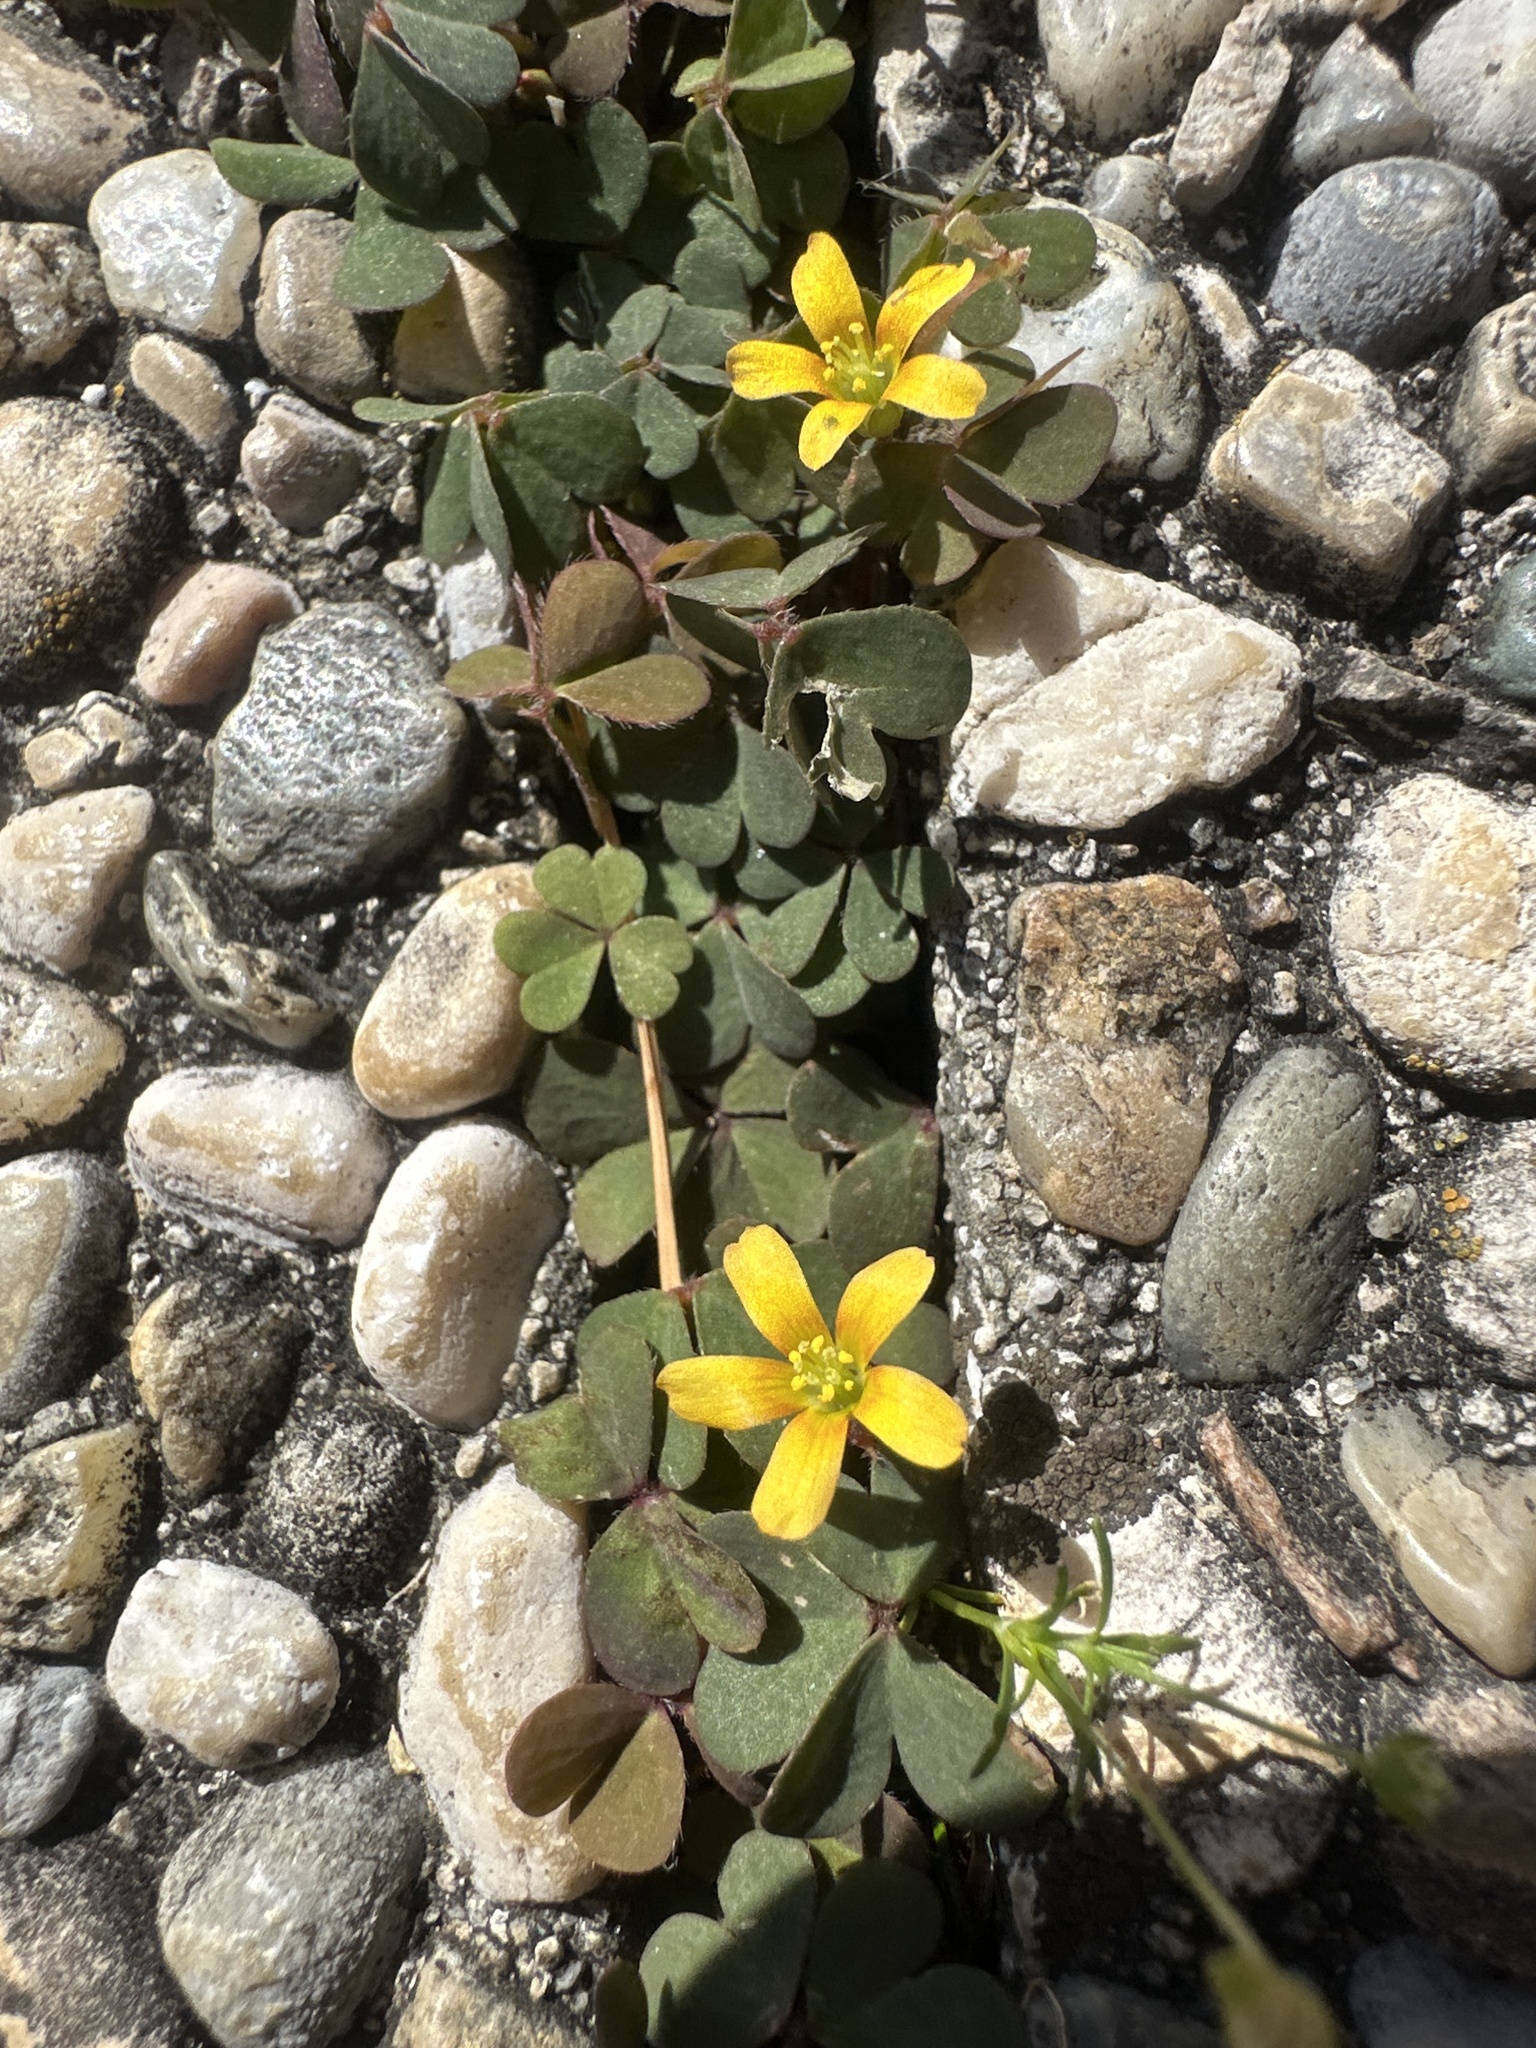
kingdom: Plantae
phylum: Tracheophyta
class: Magnoliopsida
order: Oxalidales
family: Oxalidaceae
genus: Oxalis
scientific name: Oxalis corniculata
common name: Procumbent yellow-sorrel
